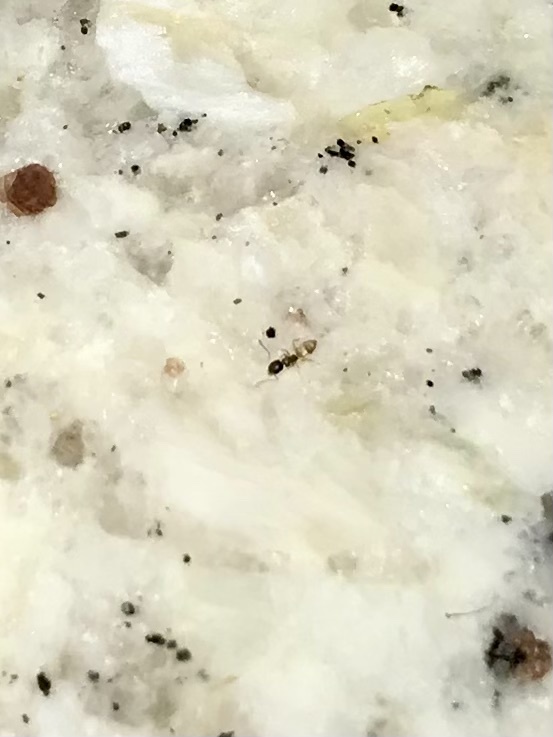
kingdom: Animalia
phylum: Arthropoda
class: Insecta
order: Hymenoptera
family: Formicidae
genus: Tapinoma
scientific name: Tapinoma melanocephalum
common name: Ghost ant
